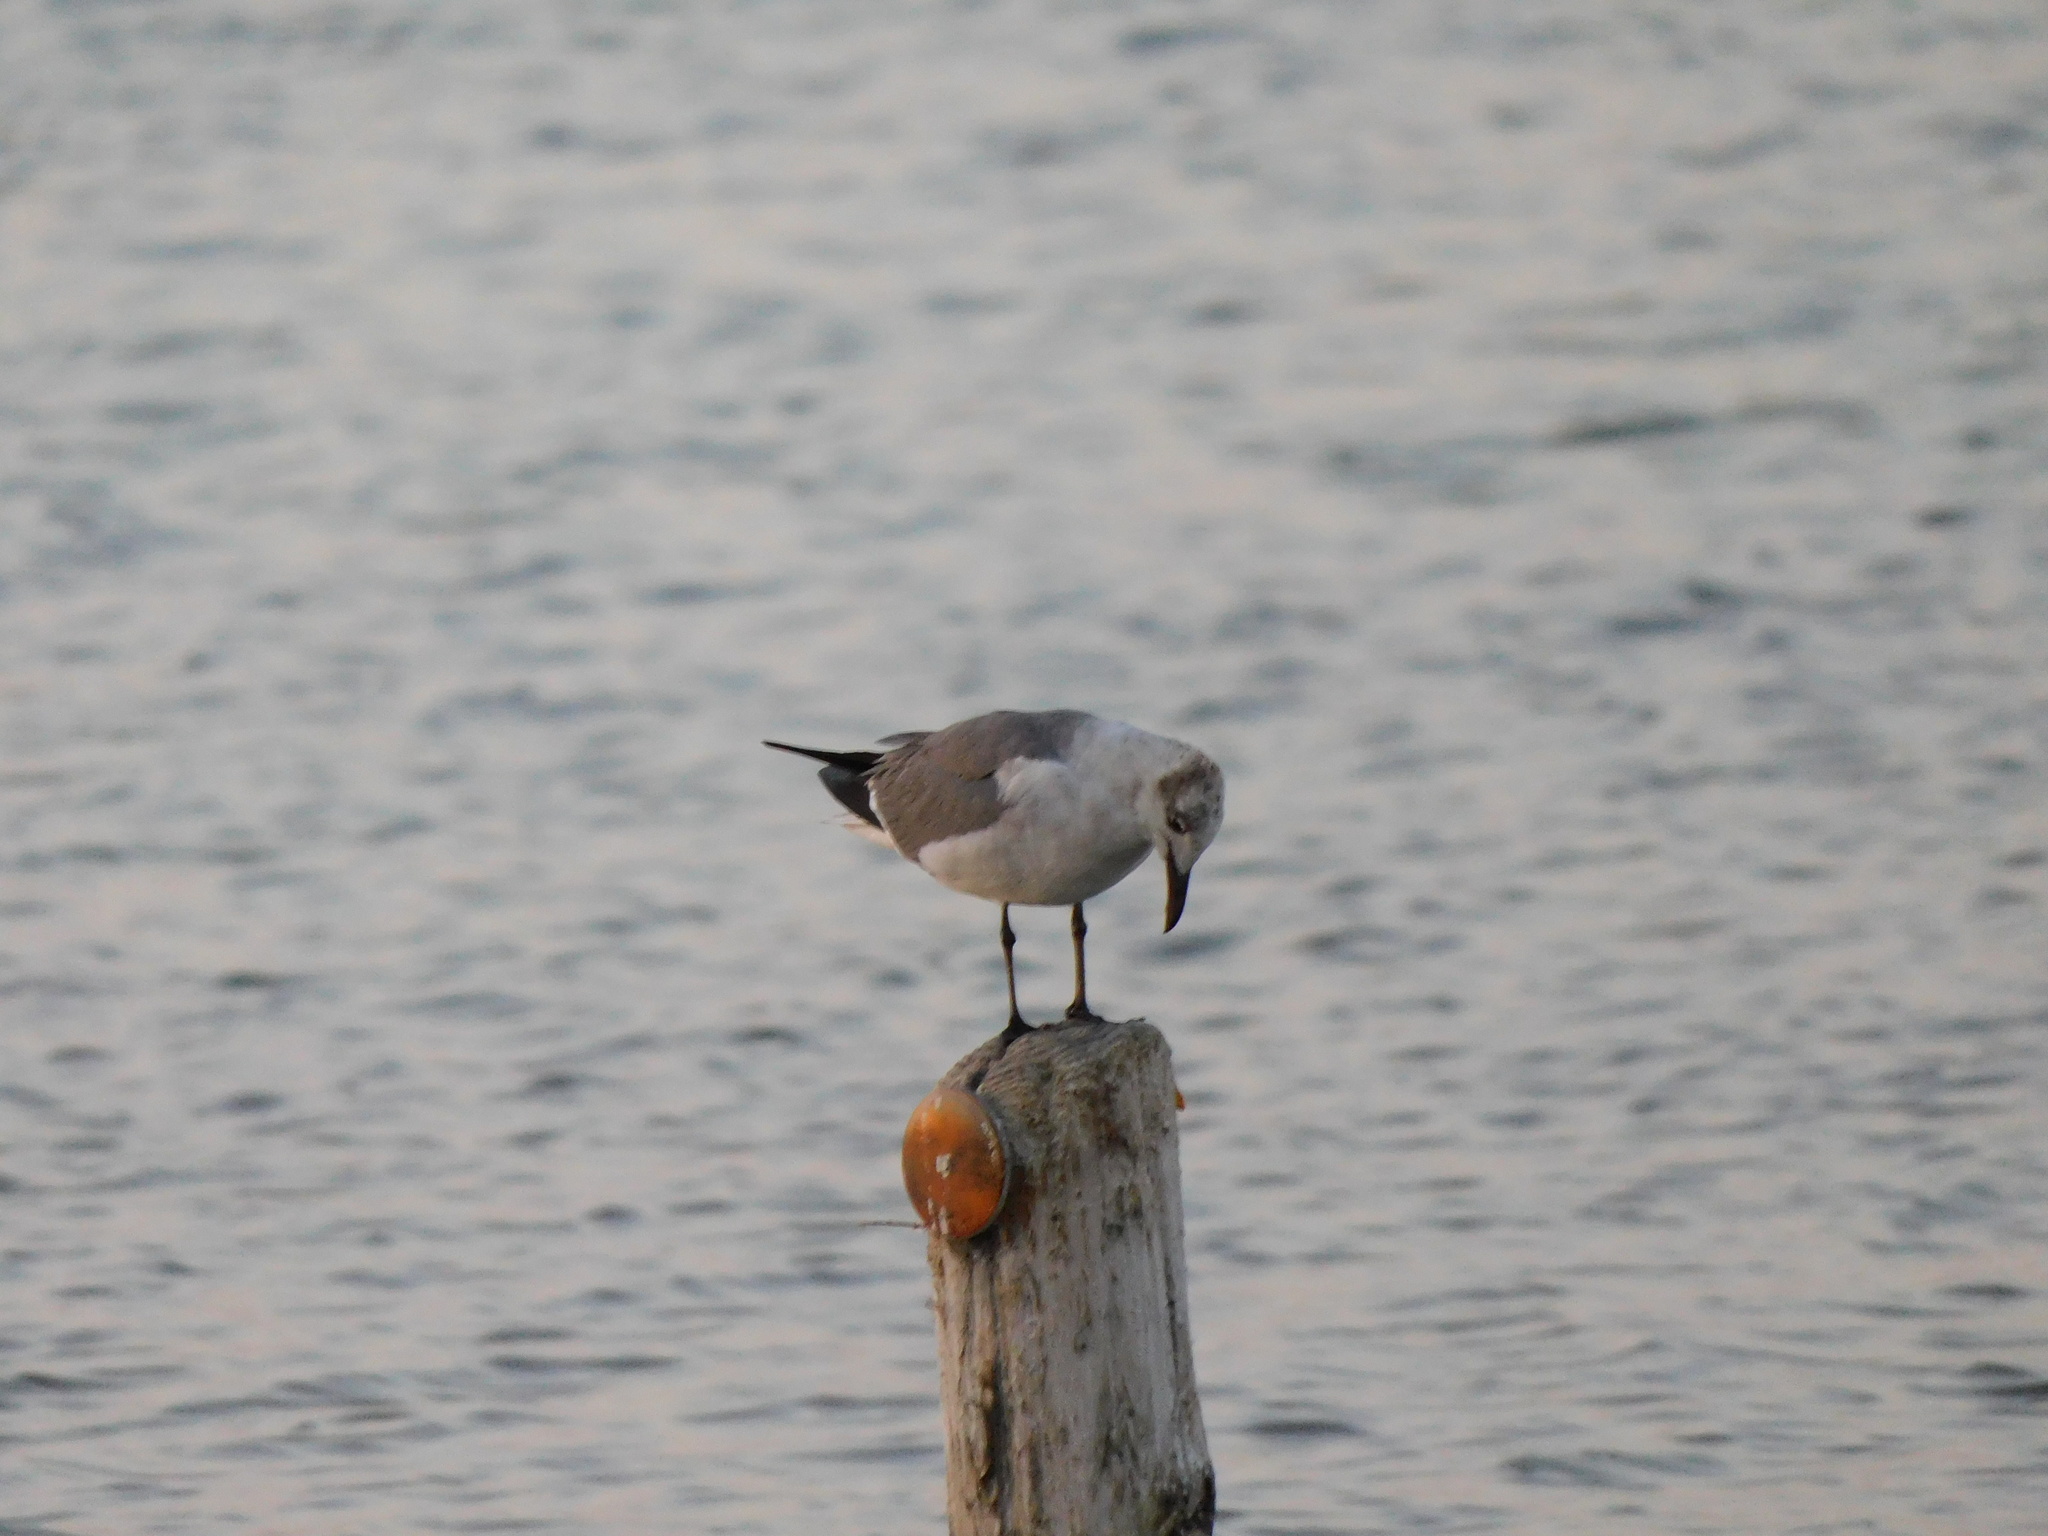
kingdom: Animalia
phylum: Chordata
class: Aves
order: Charadriiformes
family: Laridae
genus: Leucophaeus
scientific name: Leucophaeus atricilla
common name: Laughing gull
